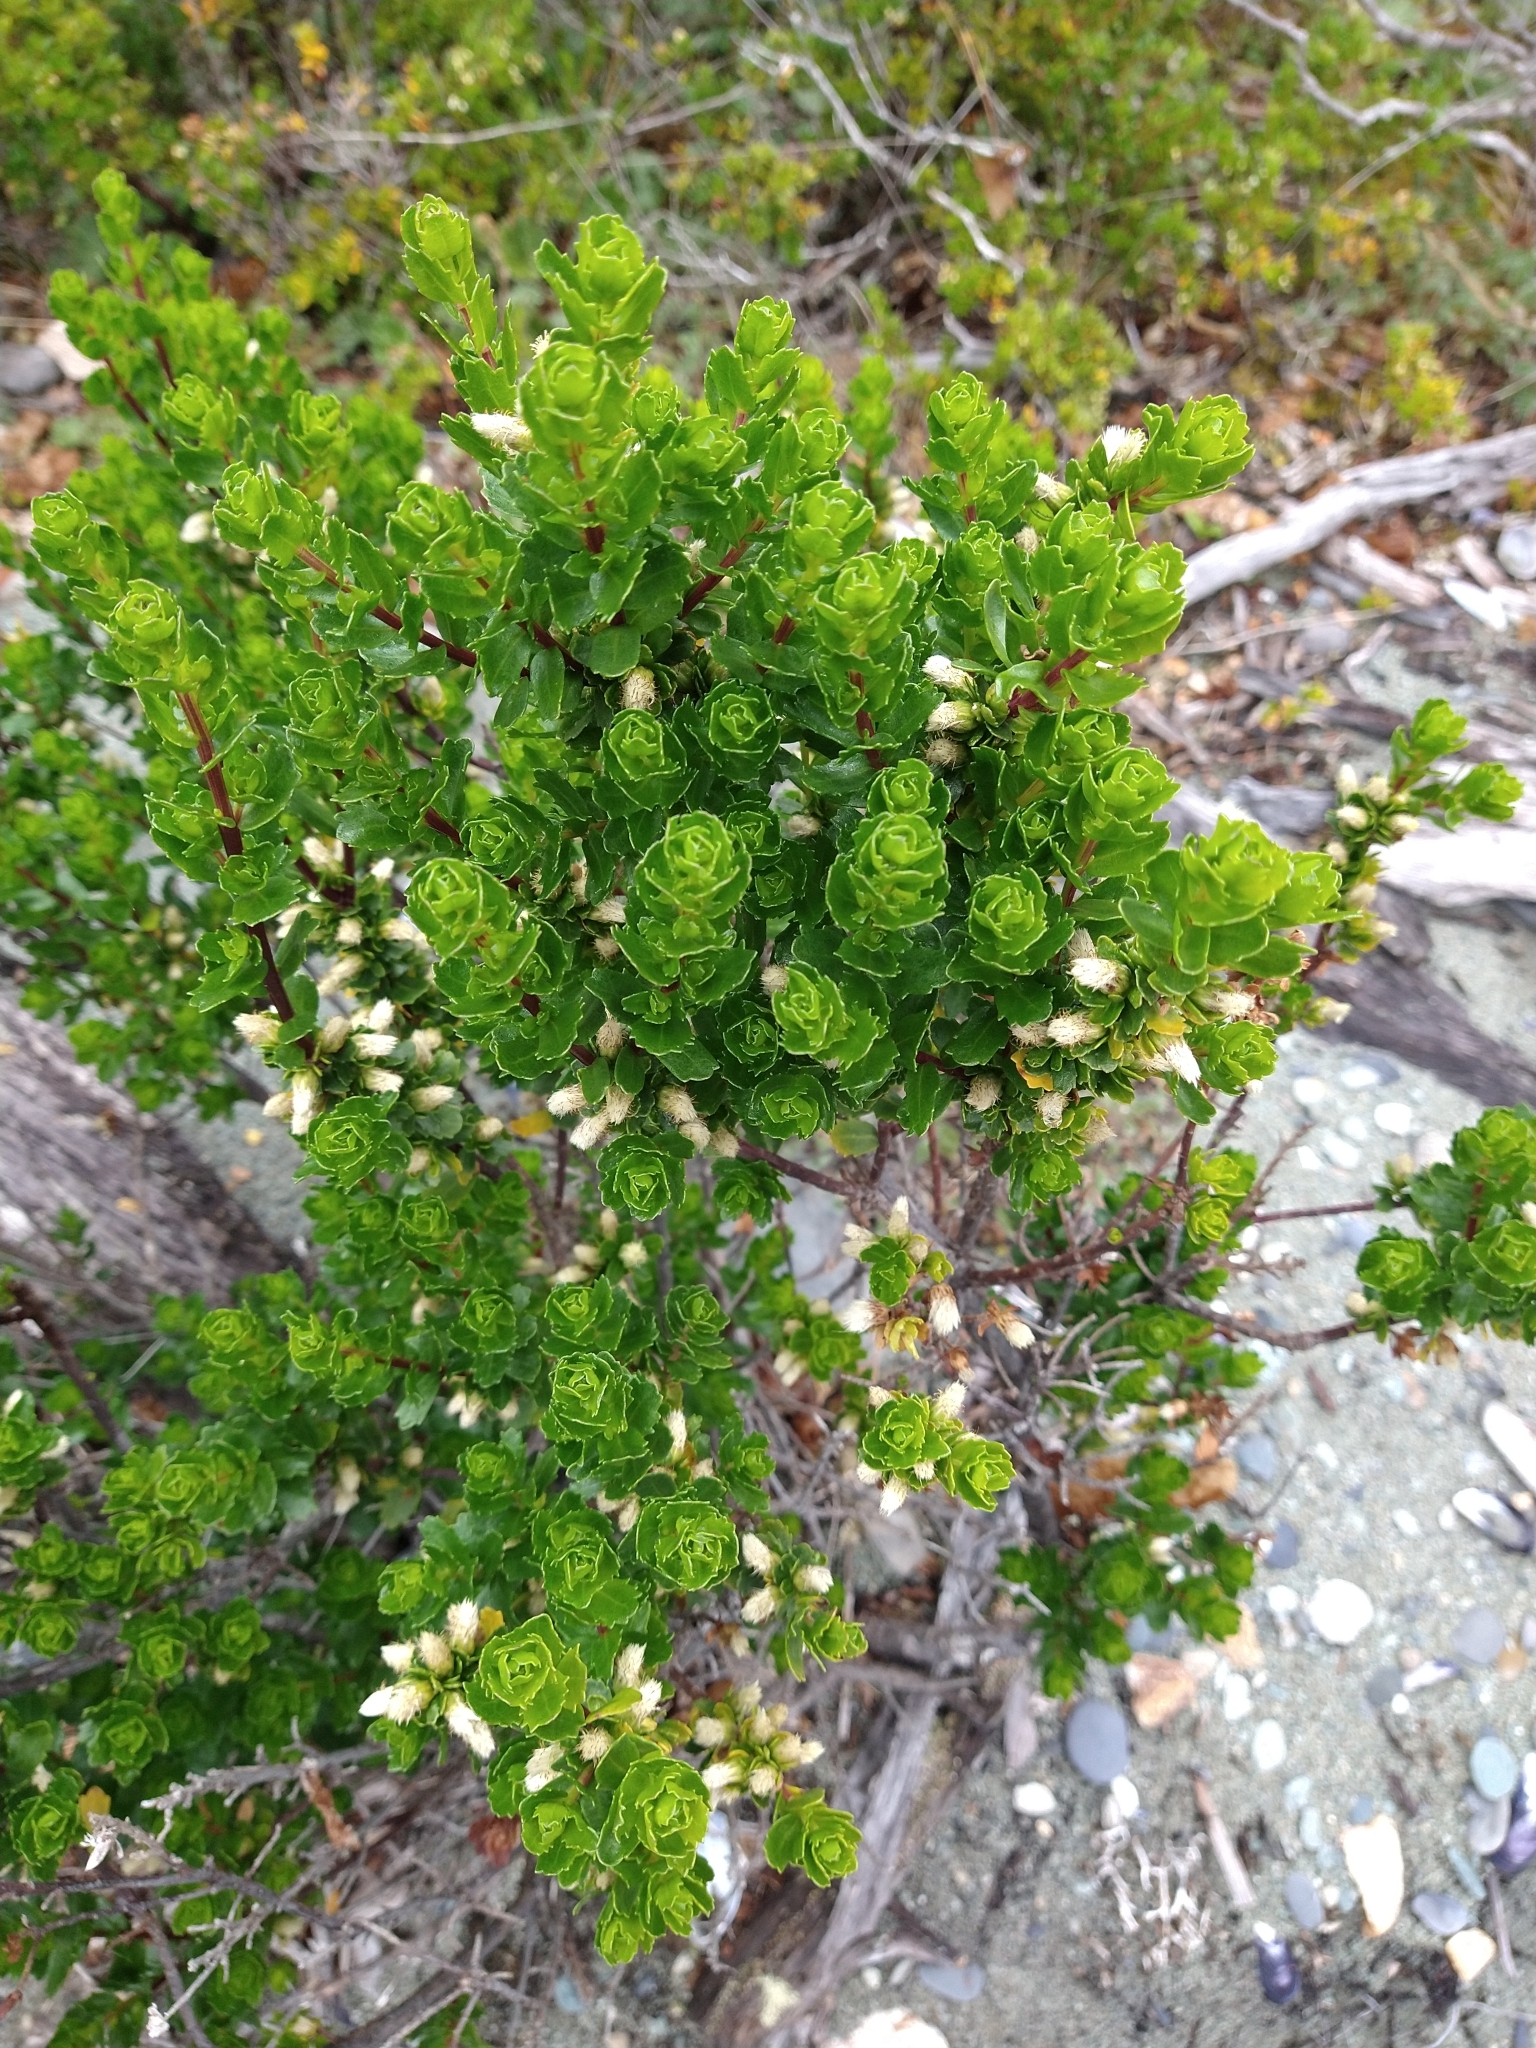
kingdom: Plantae
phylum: Tracheophyta
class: Magnoliopsida
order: Asterales
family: Asteraceae
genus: Baccharis
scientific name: Baccharis magellanica
